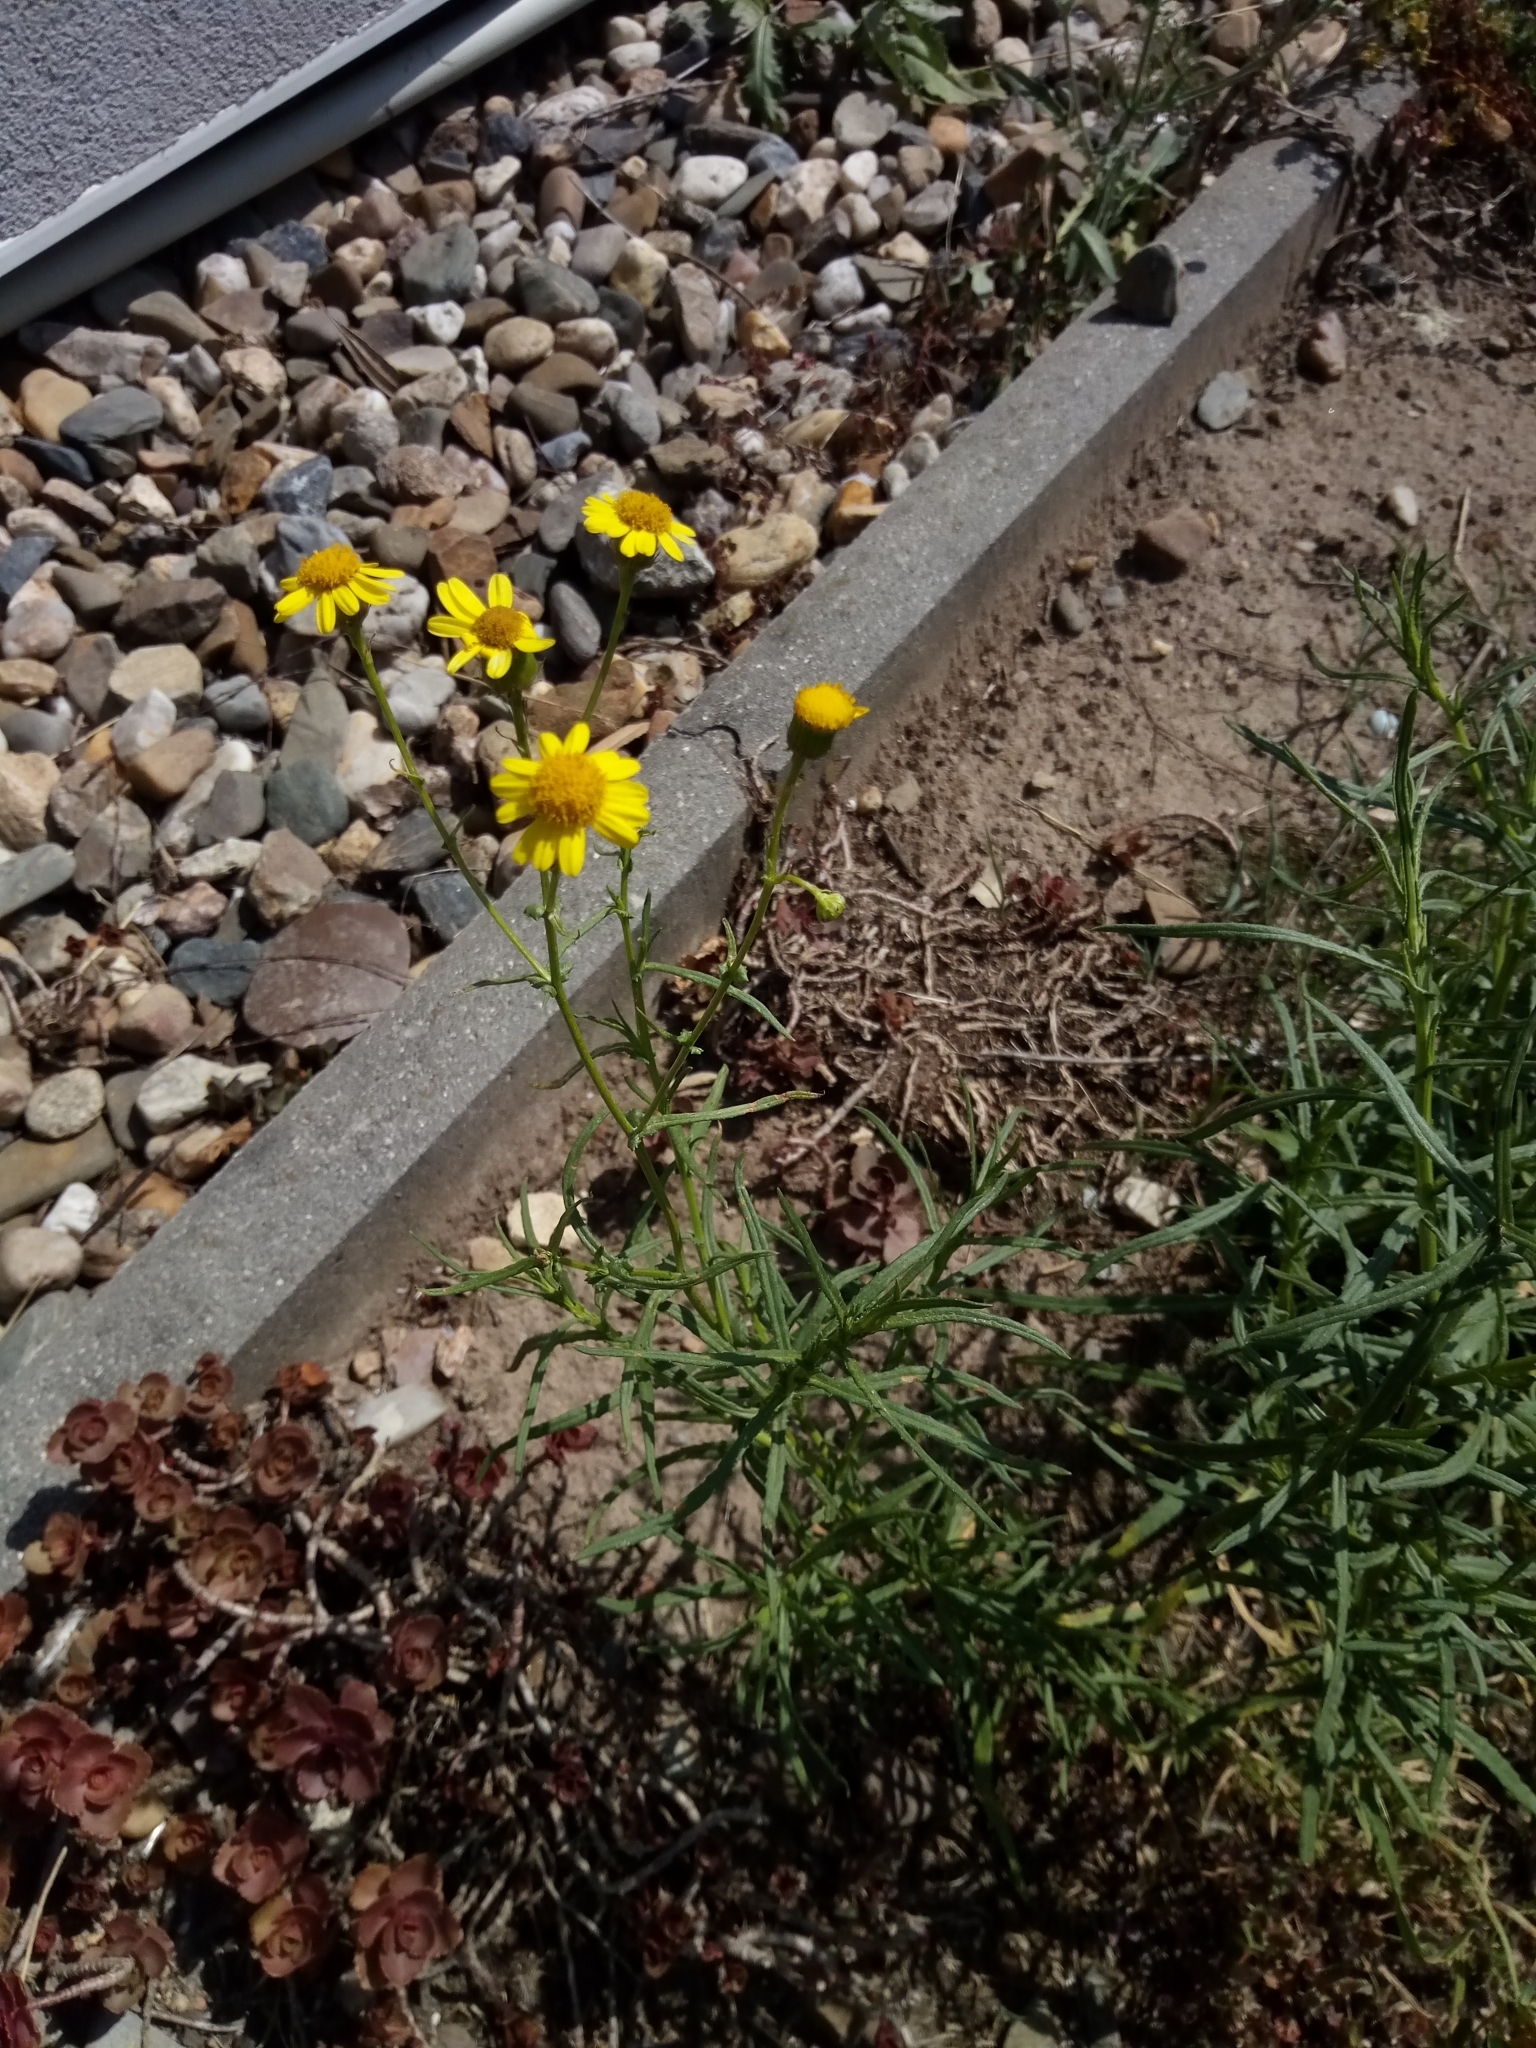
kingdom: Plantae
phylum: Tracheophyta
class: Magnoliopsida
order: Asterales
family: Asteraceae
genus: Senecio
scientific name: Senecio inaequidens
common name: Narrow-leaved ragwort
